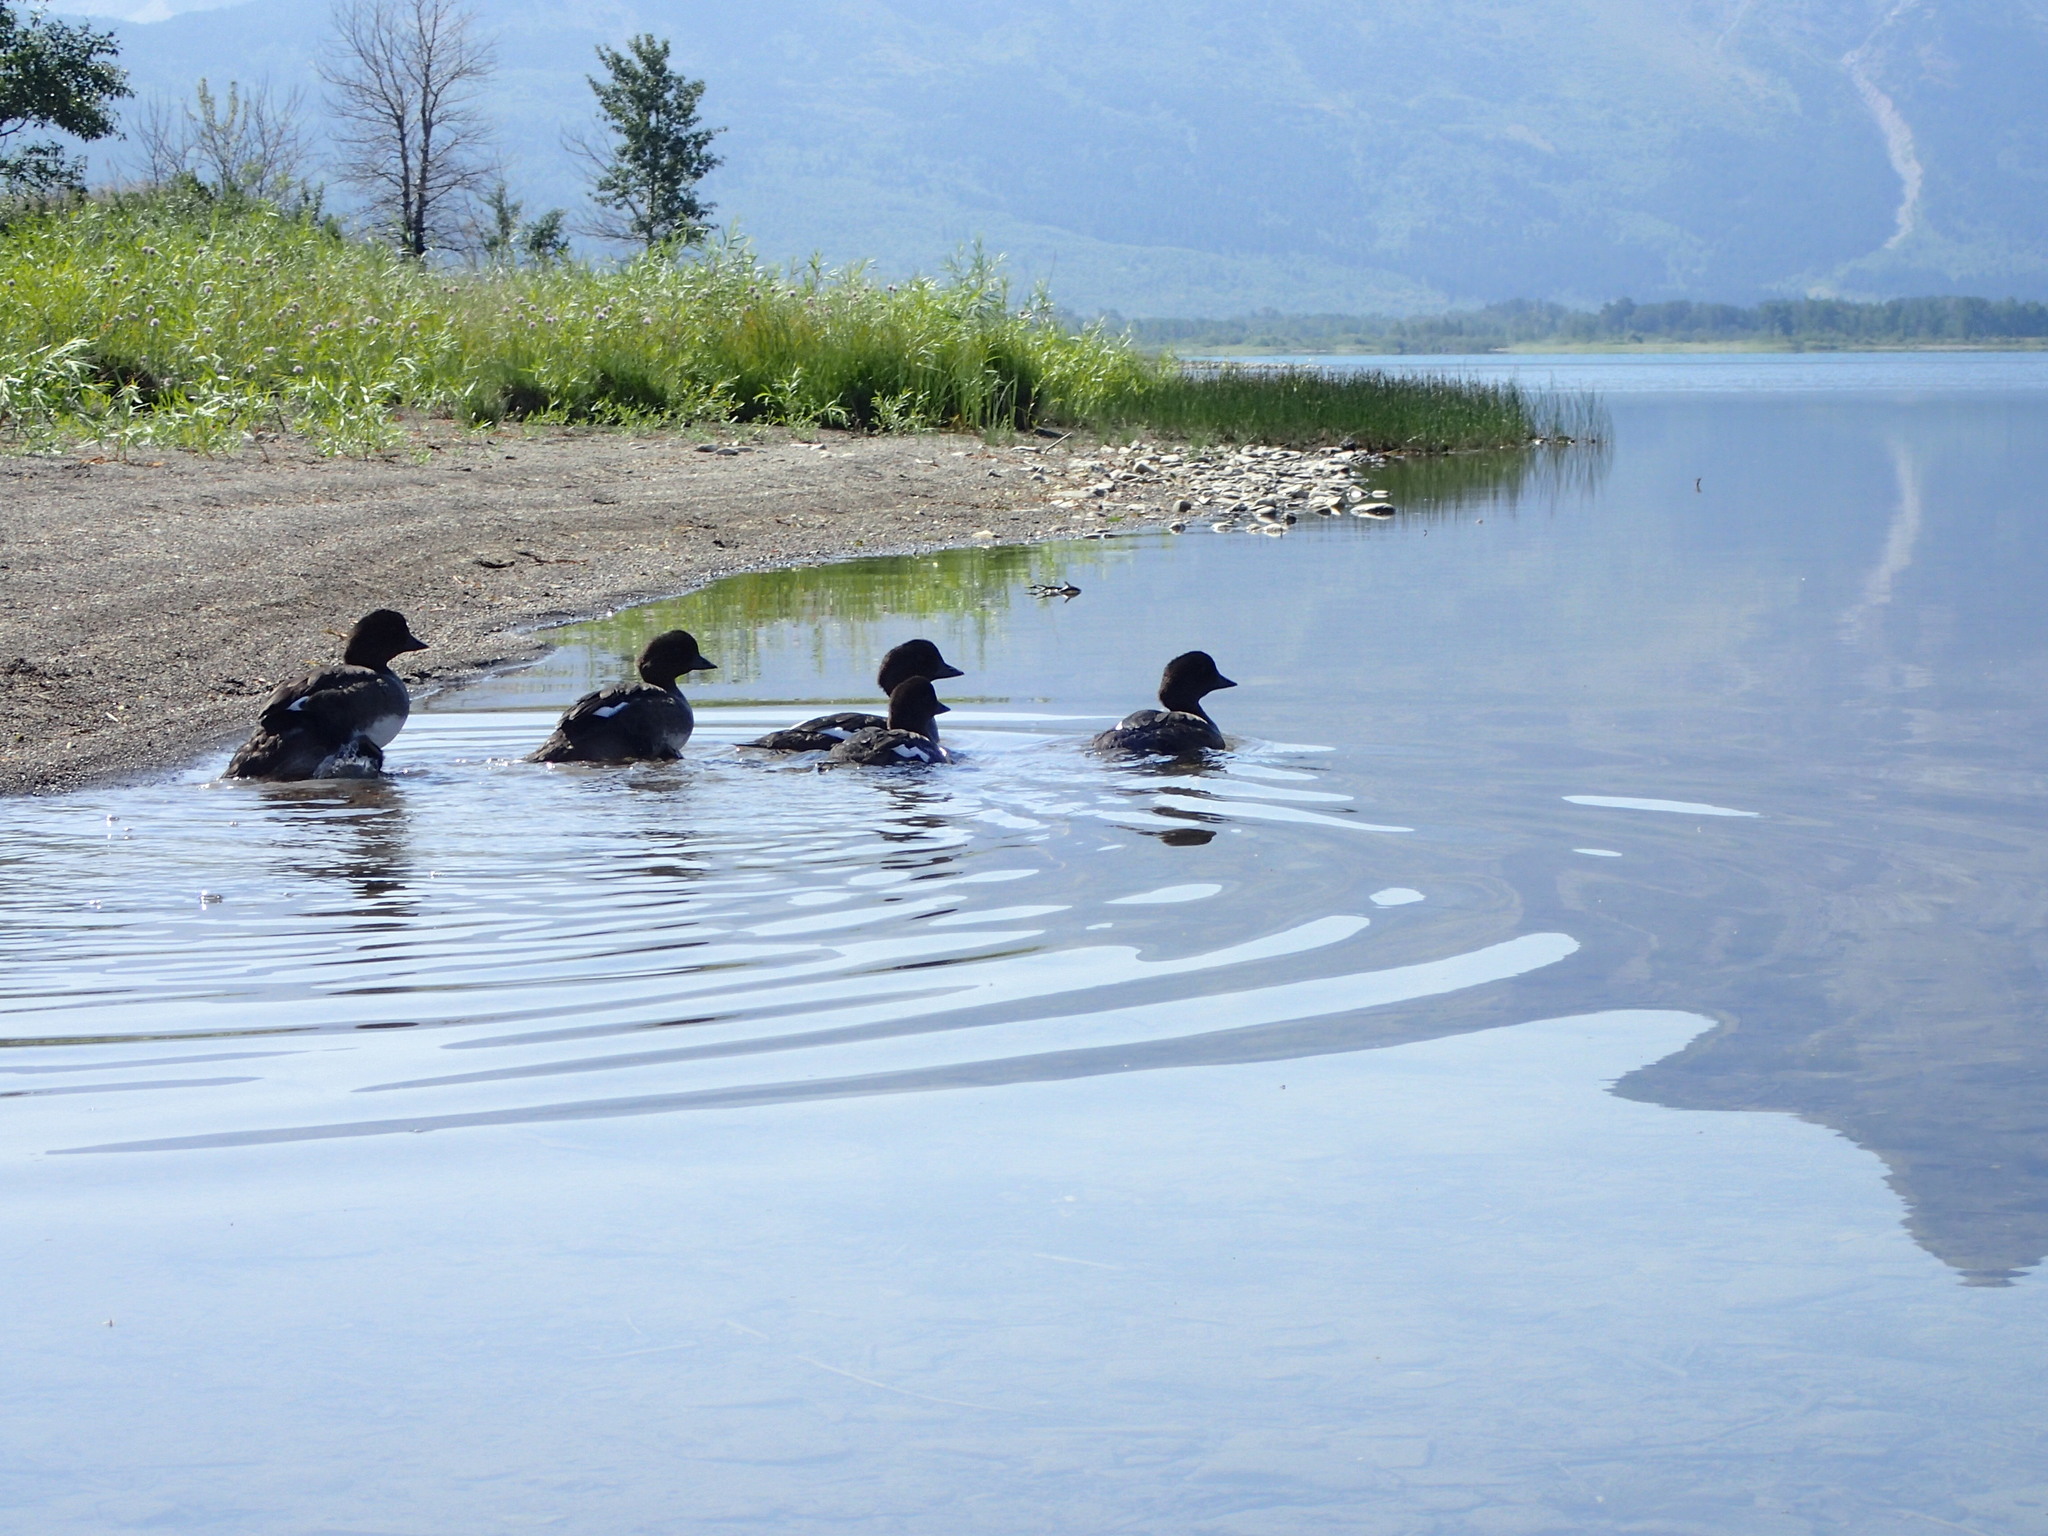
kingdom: Animalia
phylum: Chordata
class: Aves
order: Anseriformes
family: Anatidae
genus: Bucephala
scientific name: Bucephala islandica
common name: Barrow's goldeneye
